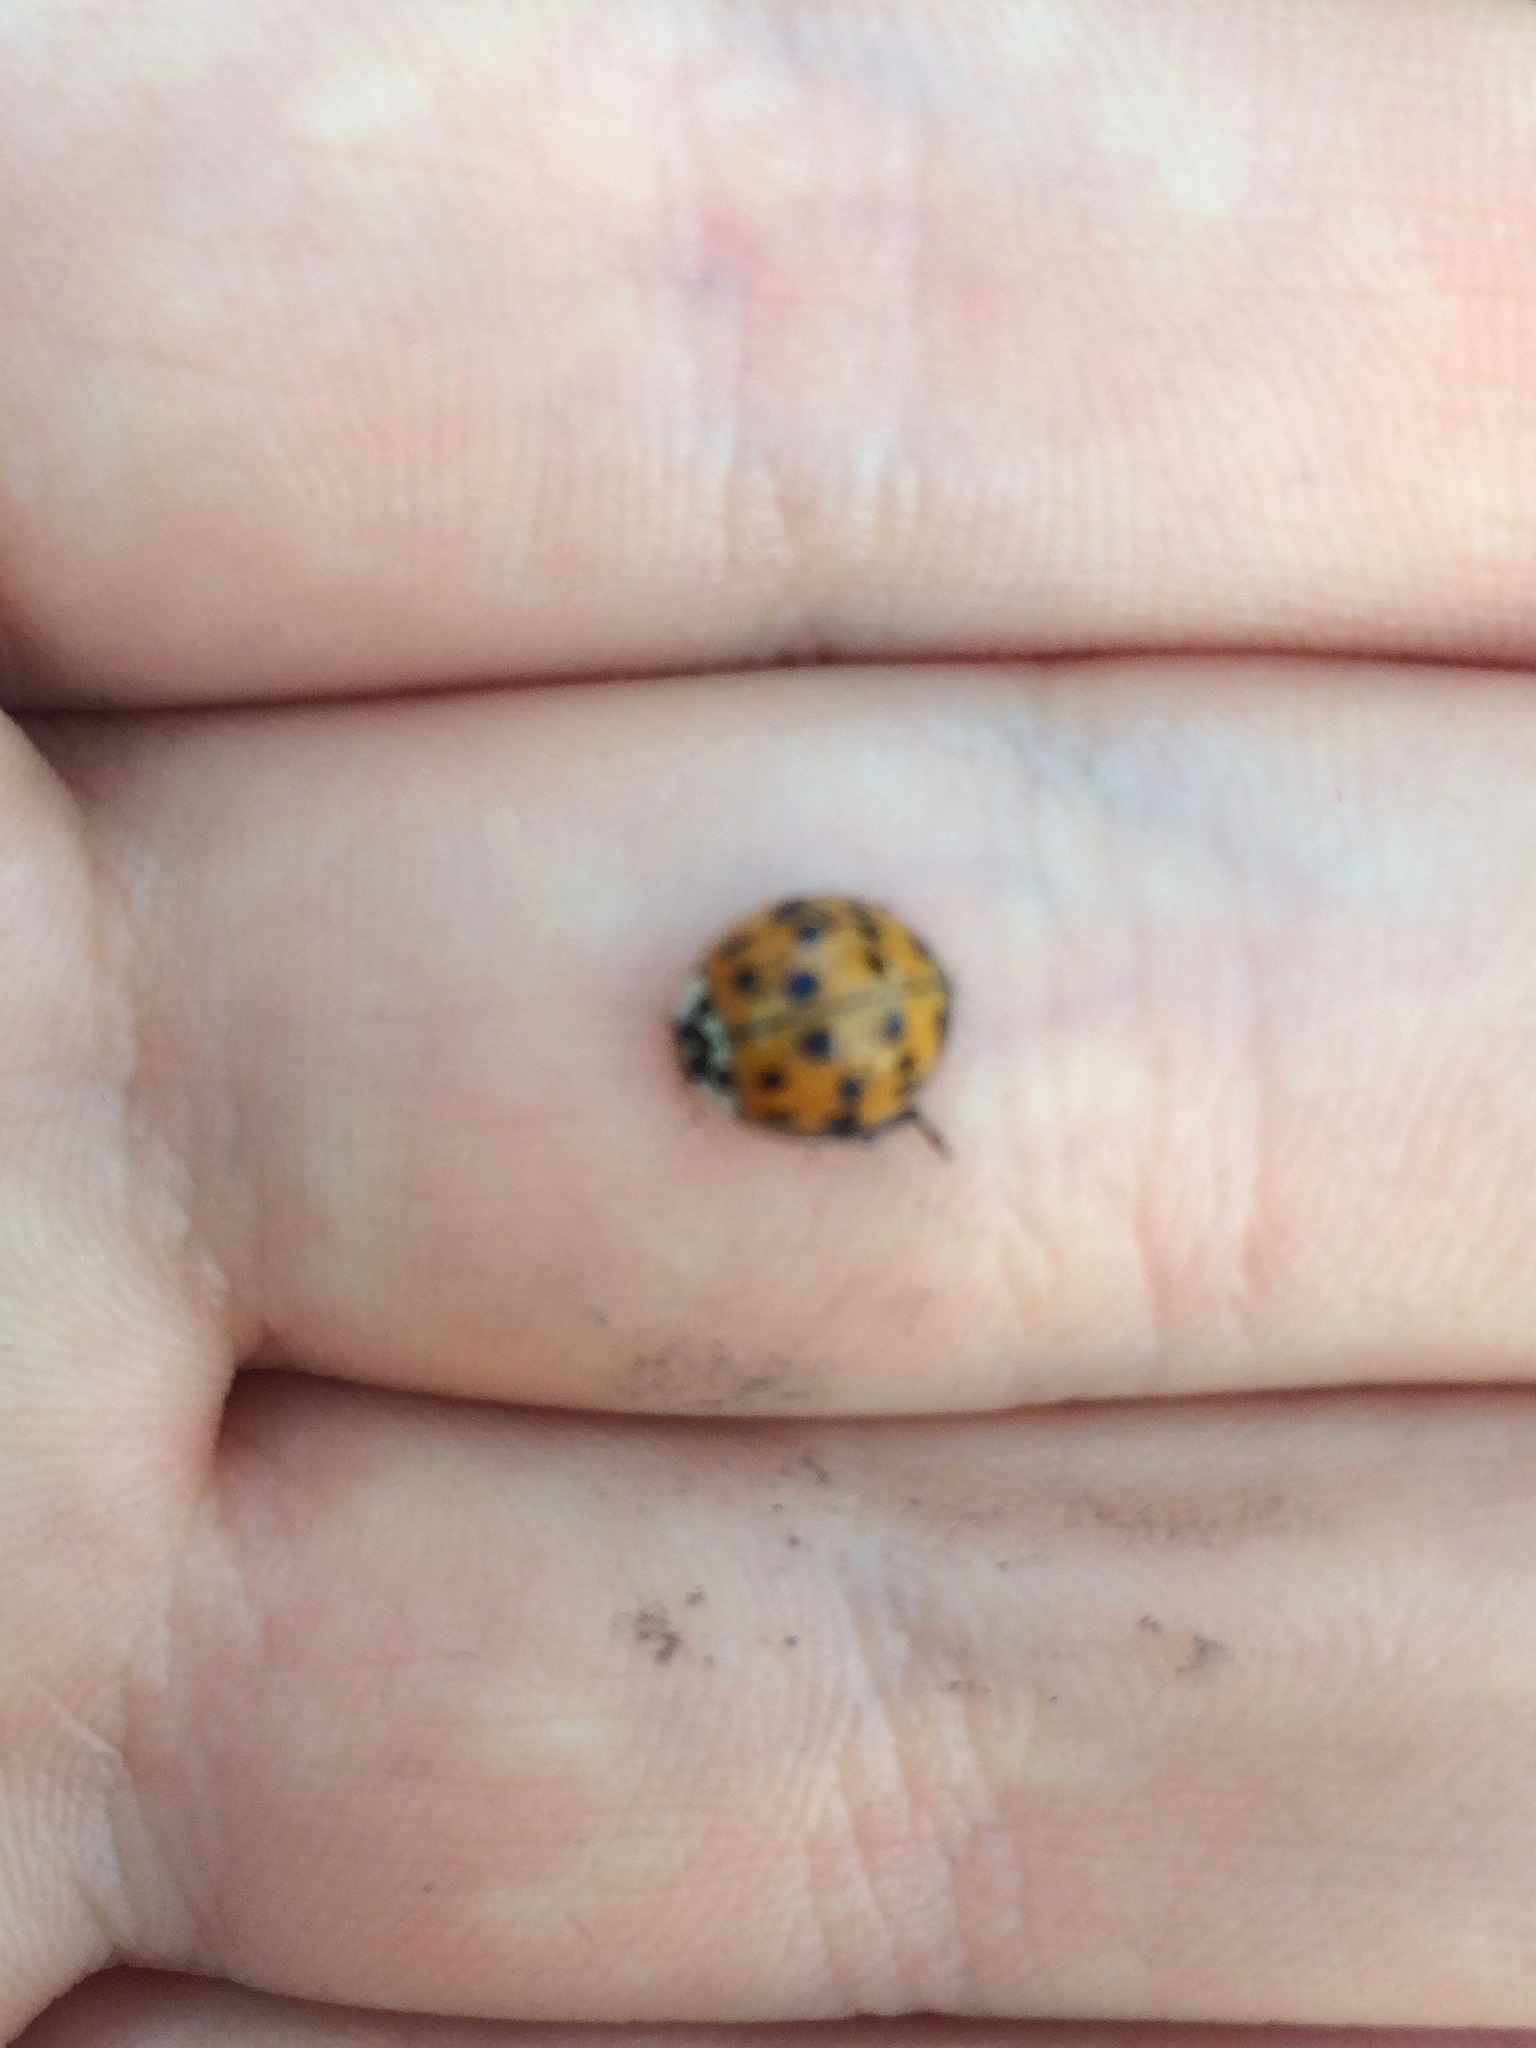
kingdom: Animalia
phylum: Arthropoda
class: Insecta
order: Coleoptera
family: Coccinellidae
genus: Harmonia
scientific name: Harmonia axyridis
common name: Harlequin ladybird
